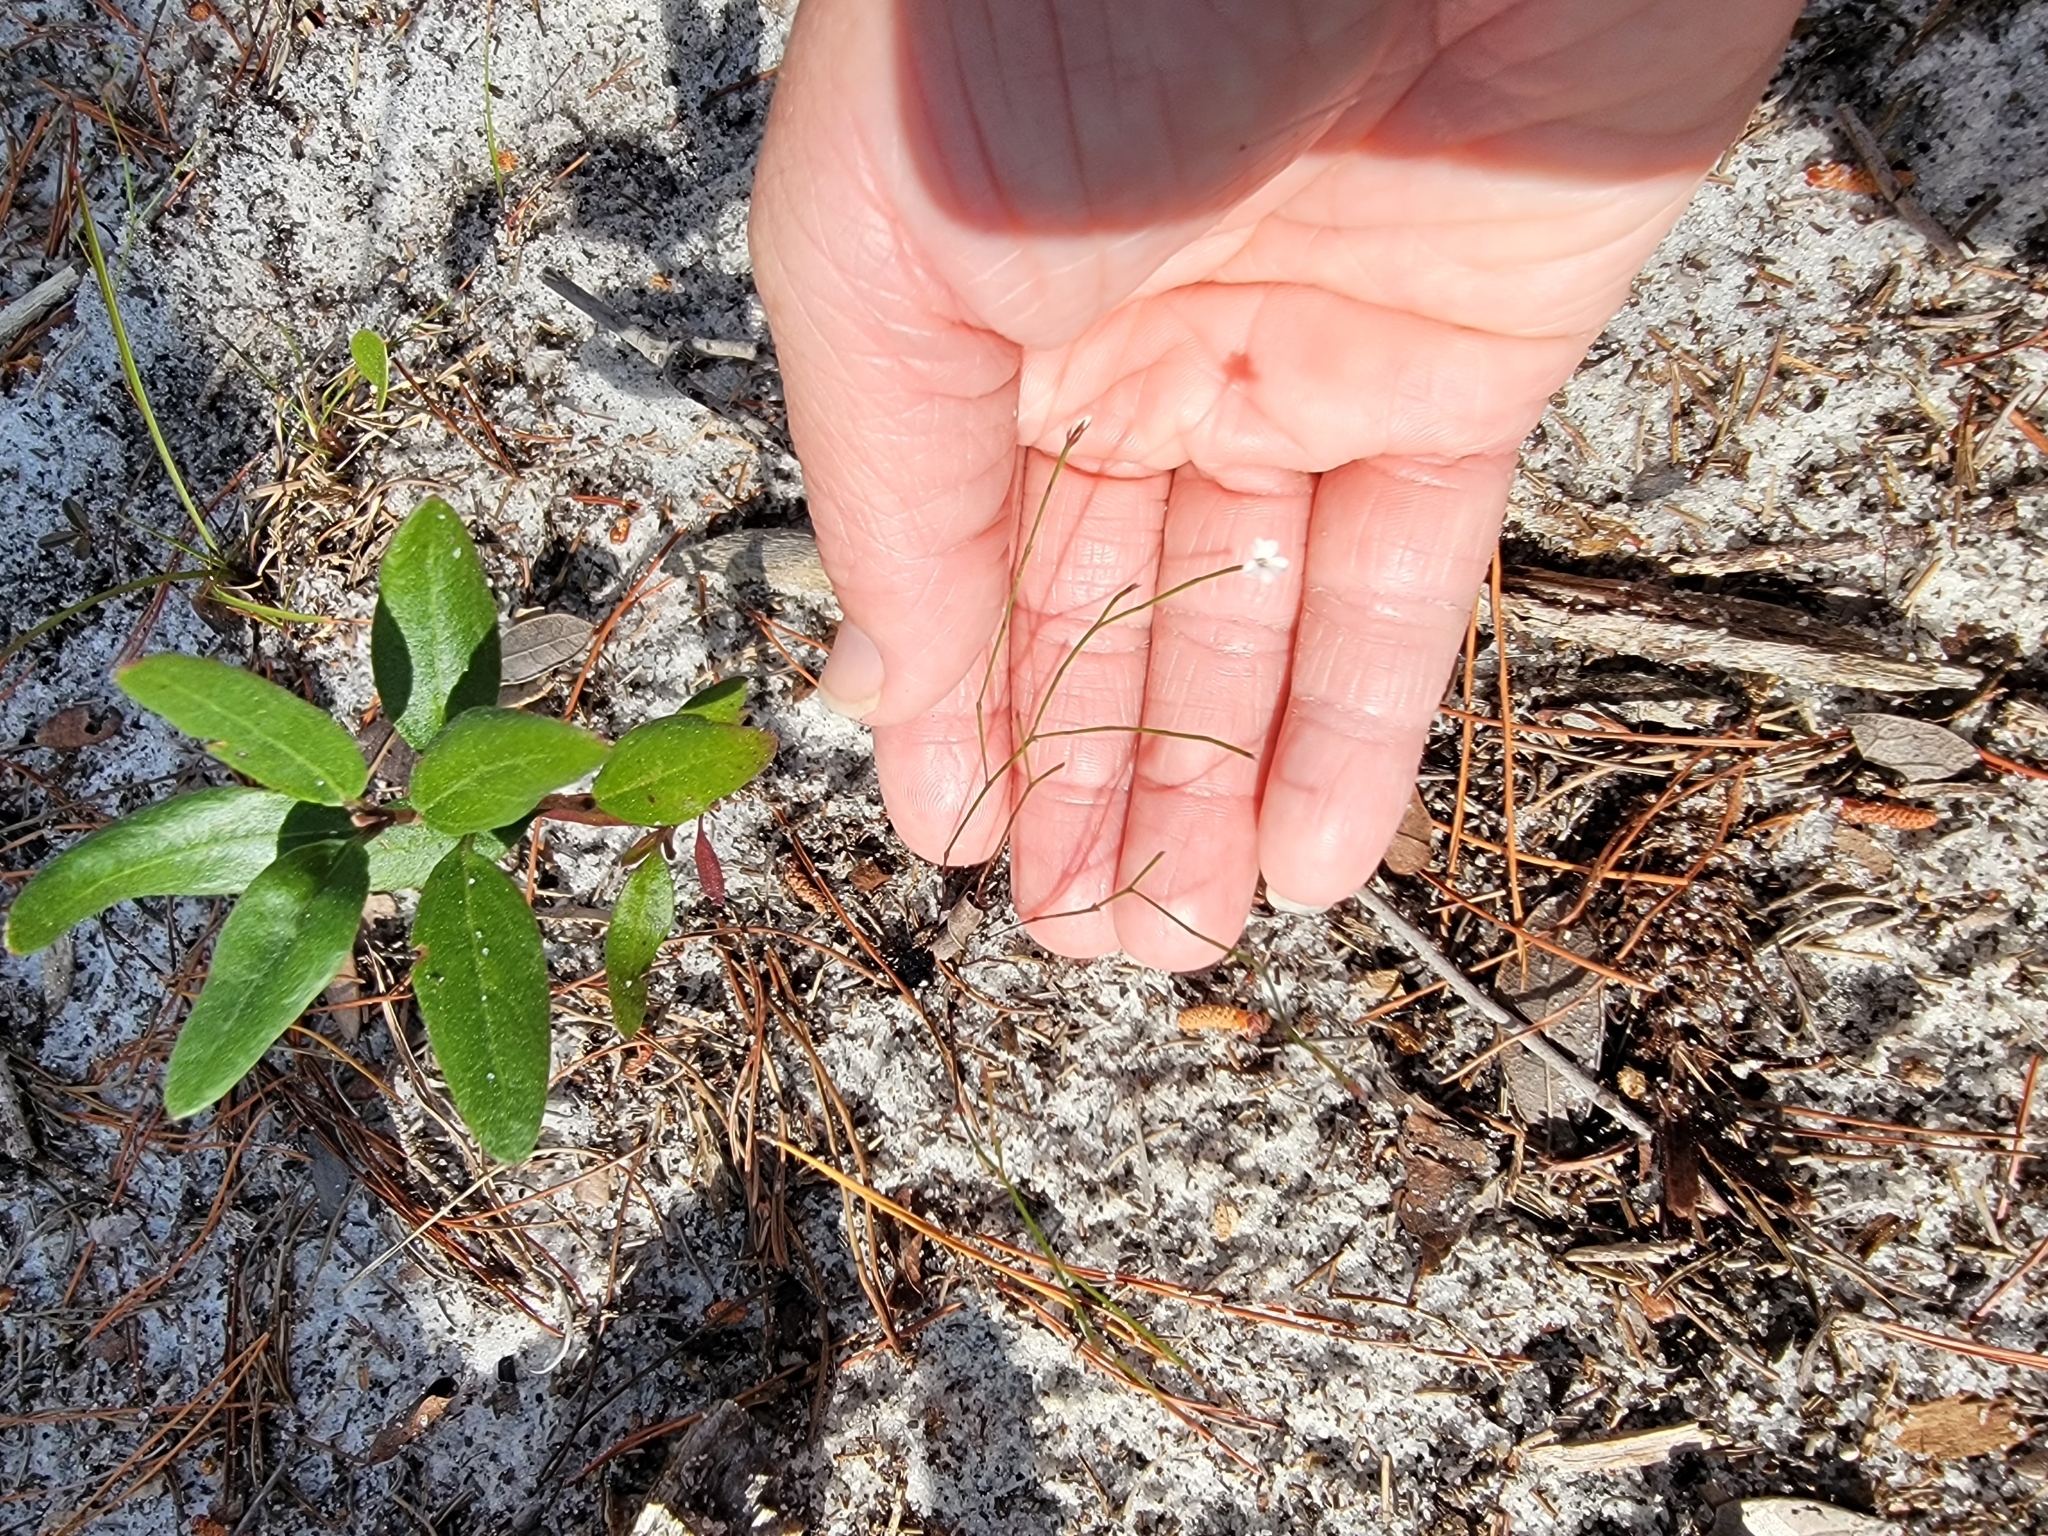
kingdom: Plantae
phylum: Tracheophyta
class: Magnoliopsida
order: Caryophyllales
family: Caryophyllaceae
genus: Stipulicida
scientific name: Stipulicida setacea
